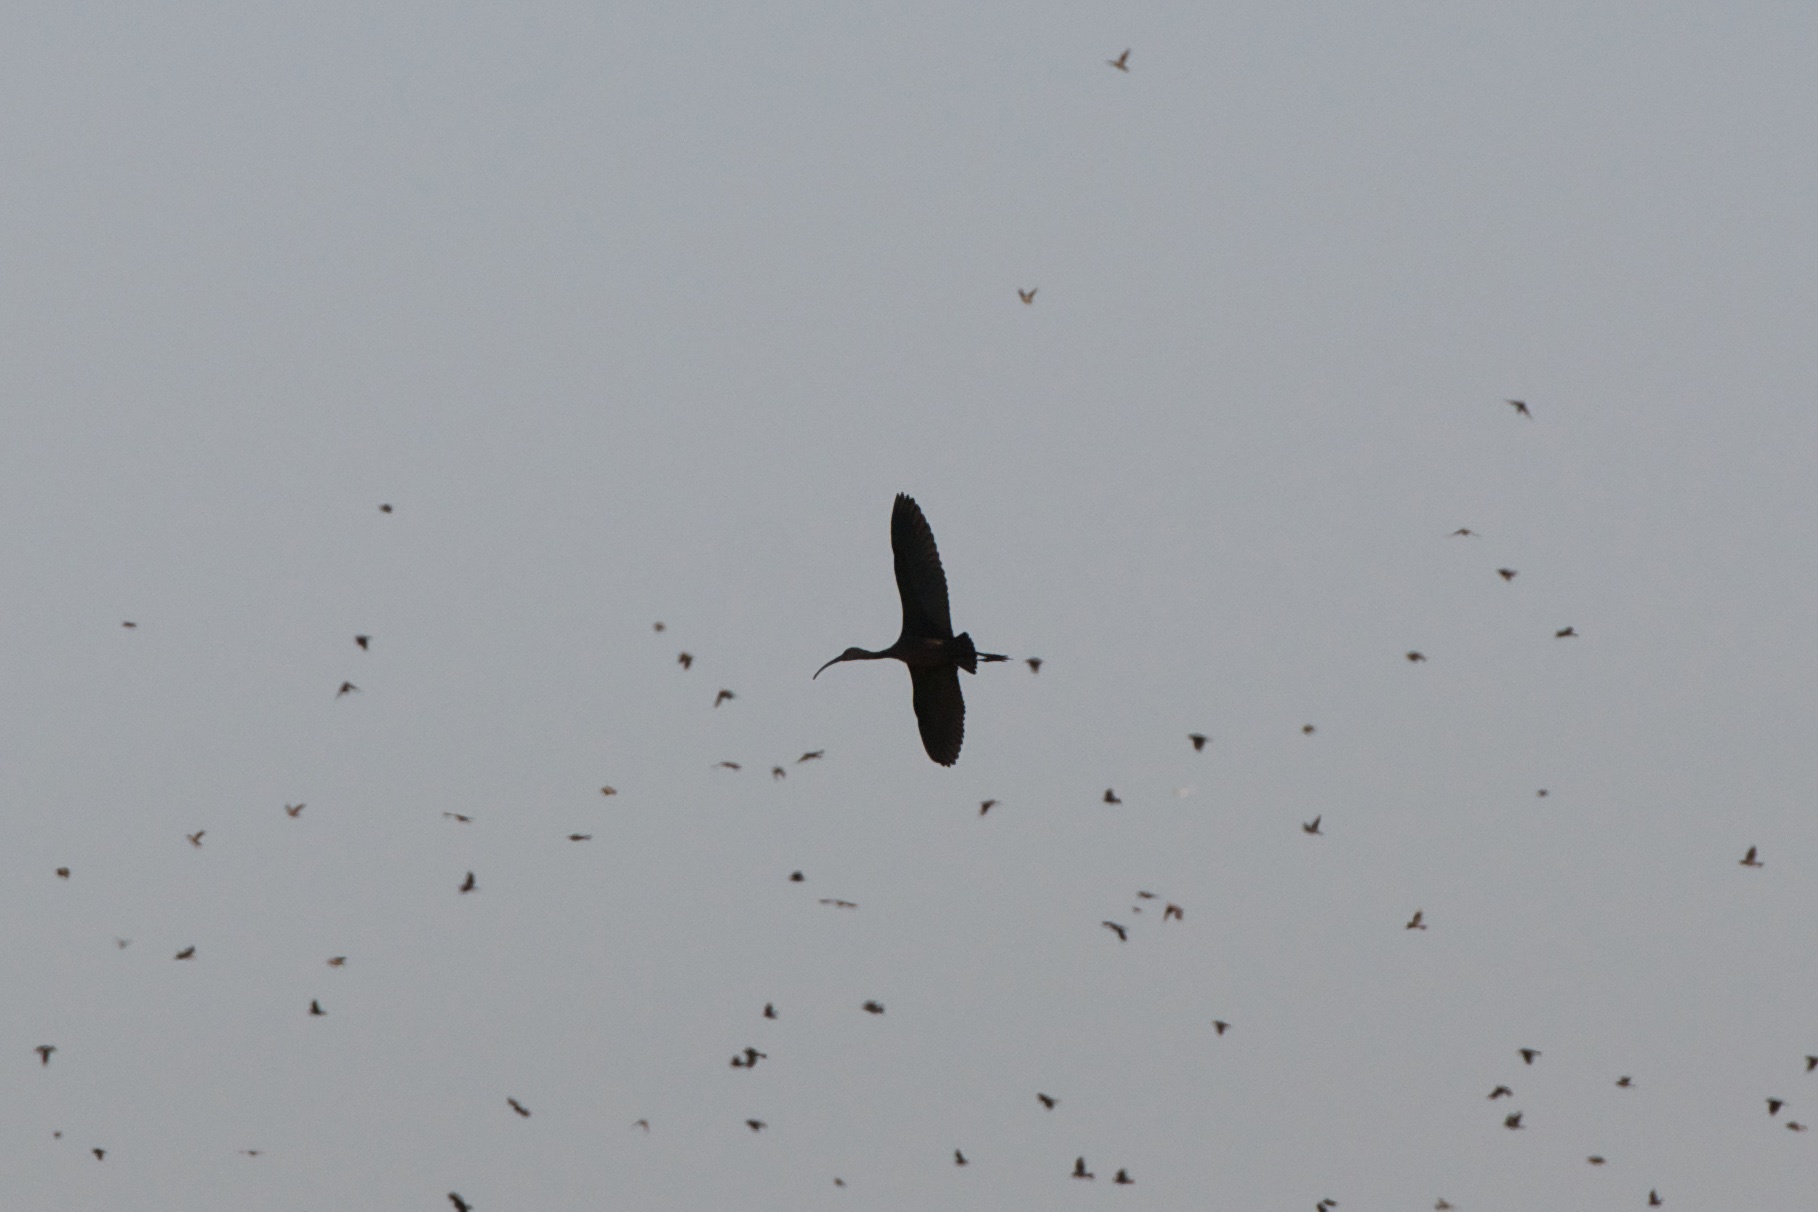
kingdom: Animalia
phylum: Chordata
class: Aves
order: Pelecaniformes
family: Threskiornithidae
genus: Plegadis
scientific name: Plegadis chihi
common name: White-faced ibis
